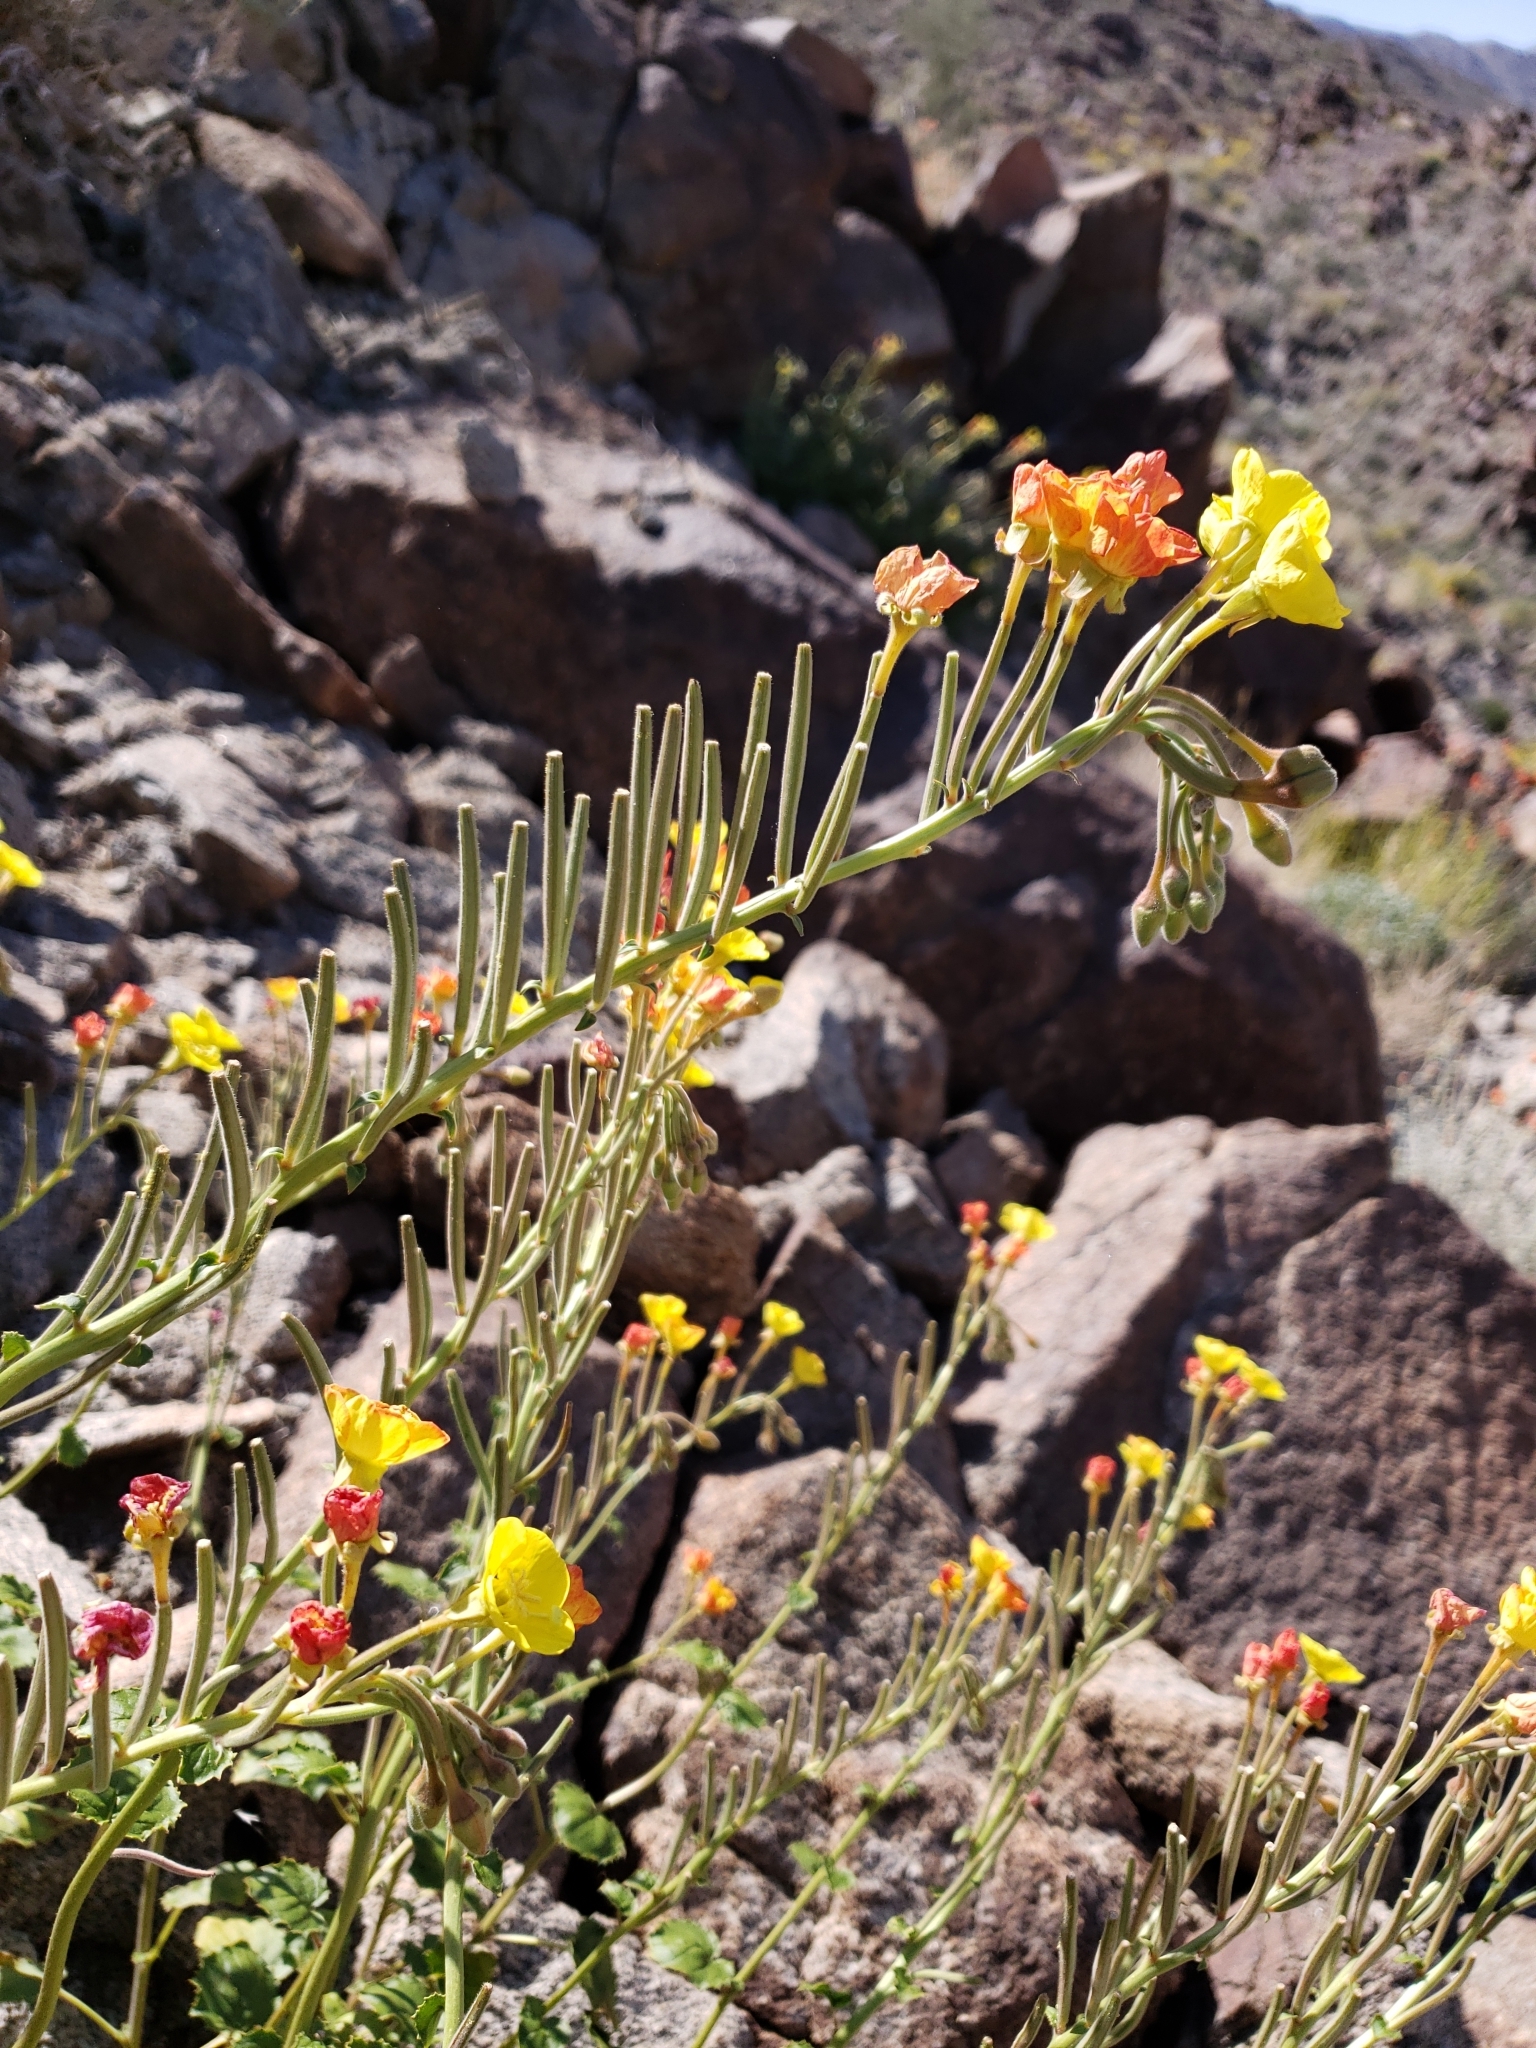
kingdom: Plantae
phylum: Tracheophyta
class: Magnoliopsida
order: Myrtales
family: Onagraceae
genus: Chylismia
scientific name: Chylismia cardiophylla
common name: Heartleaf suncup
